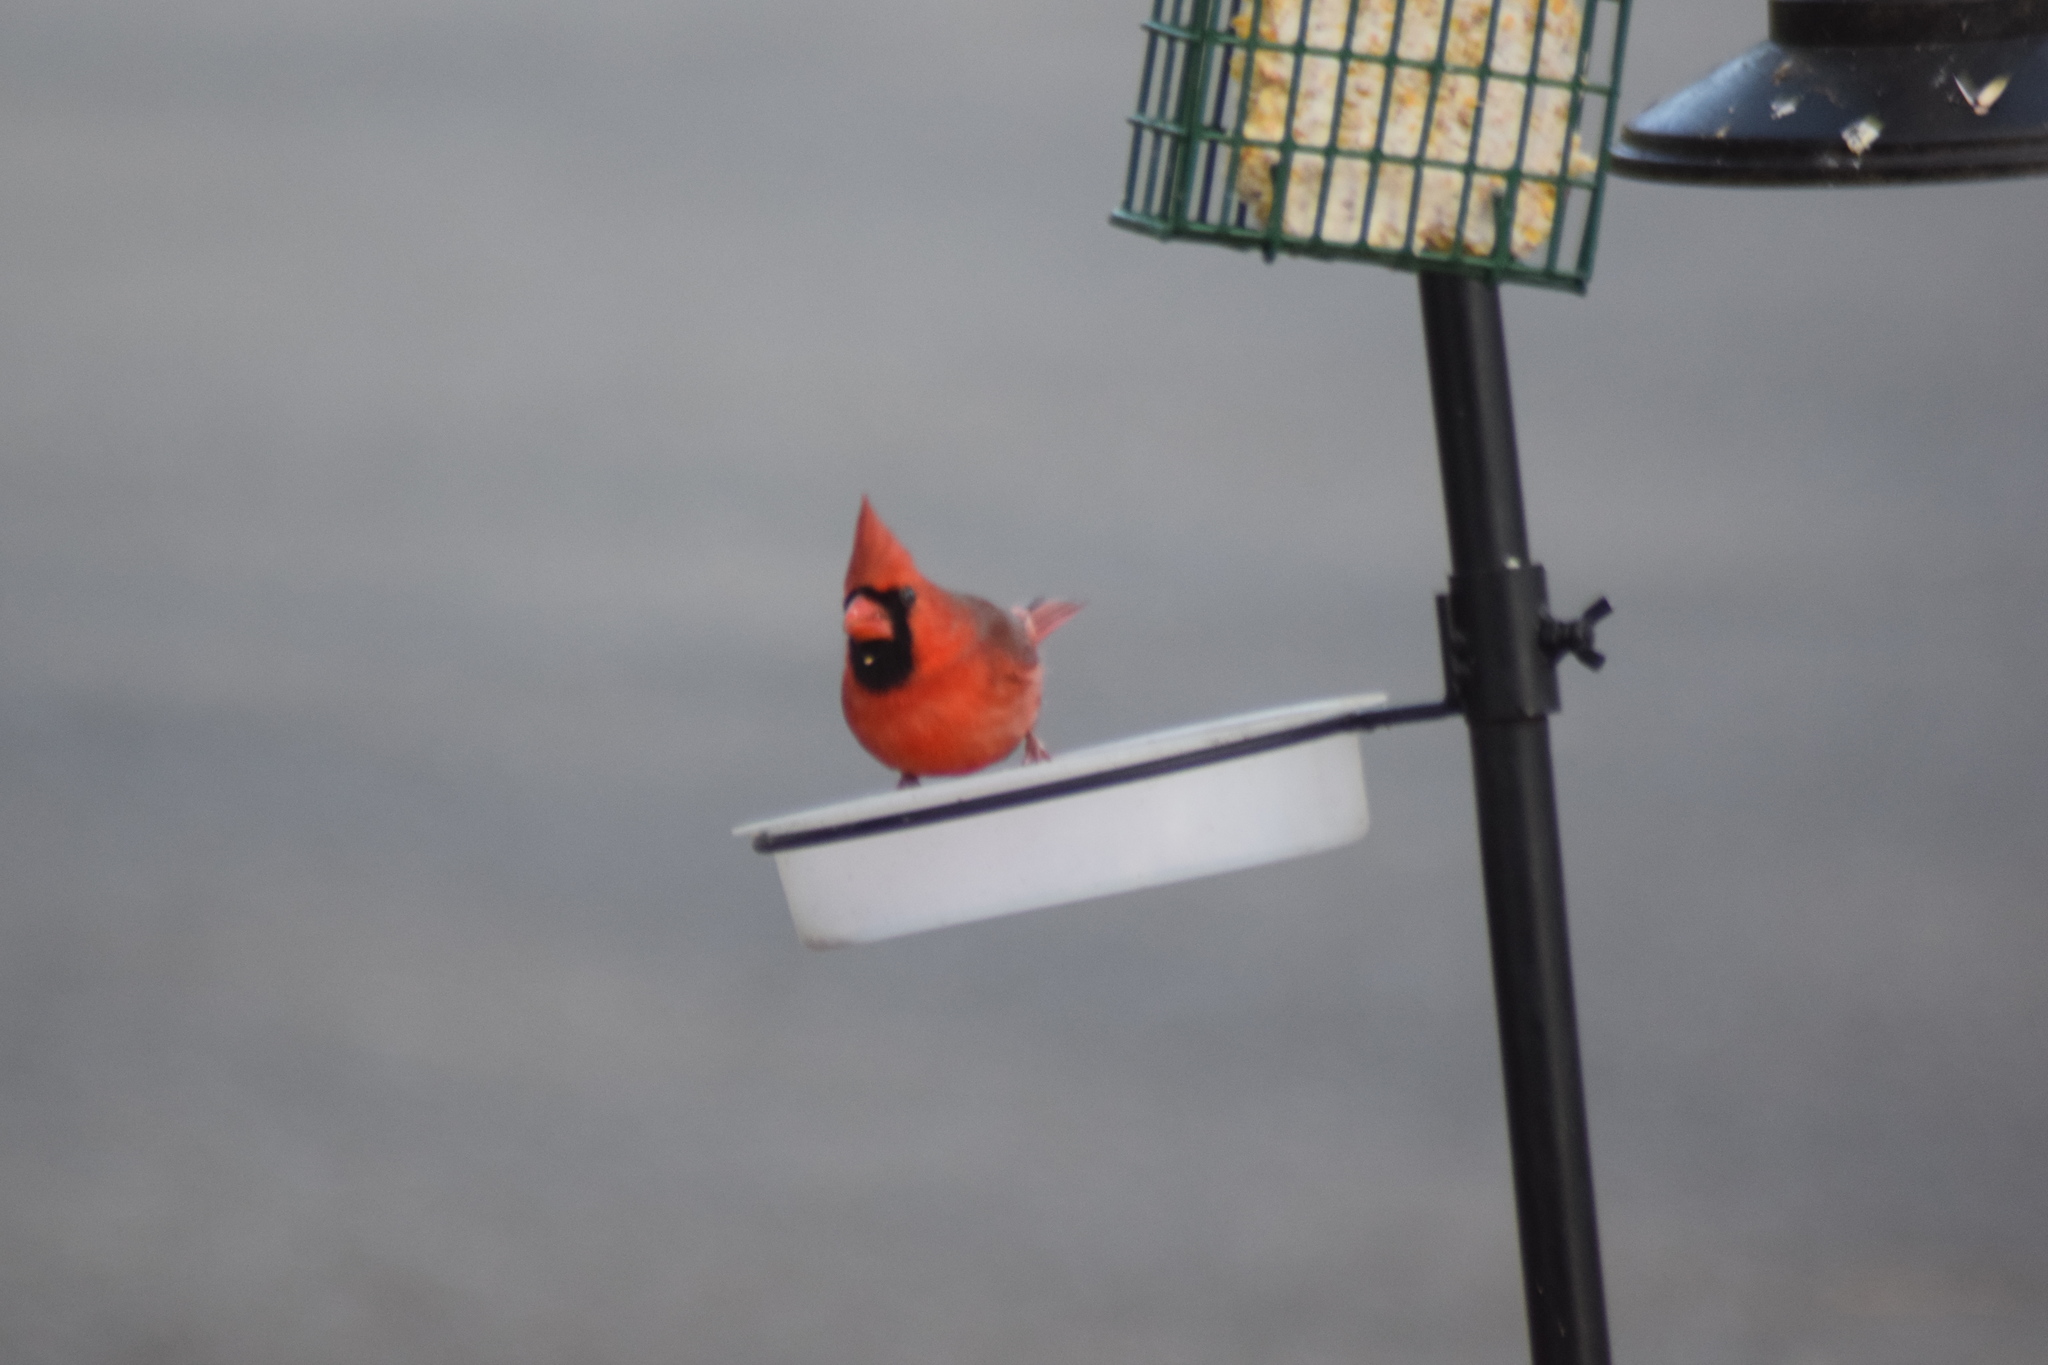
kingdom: Animalia
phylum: Chordata
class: Aves
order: Passeriformes
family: Cardinalidae
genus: Cardinalis
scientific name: Cardinalis cardinalis
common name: Northern cardinal
